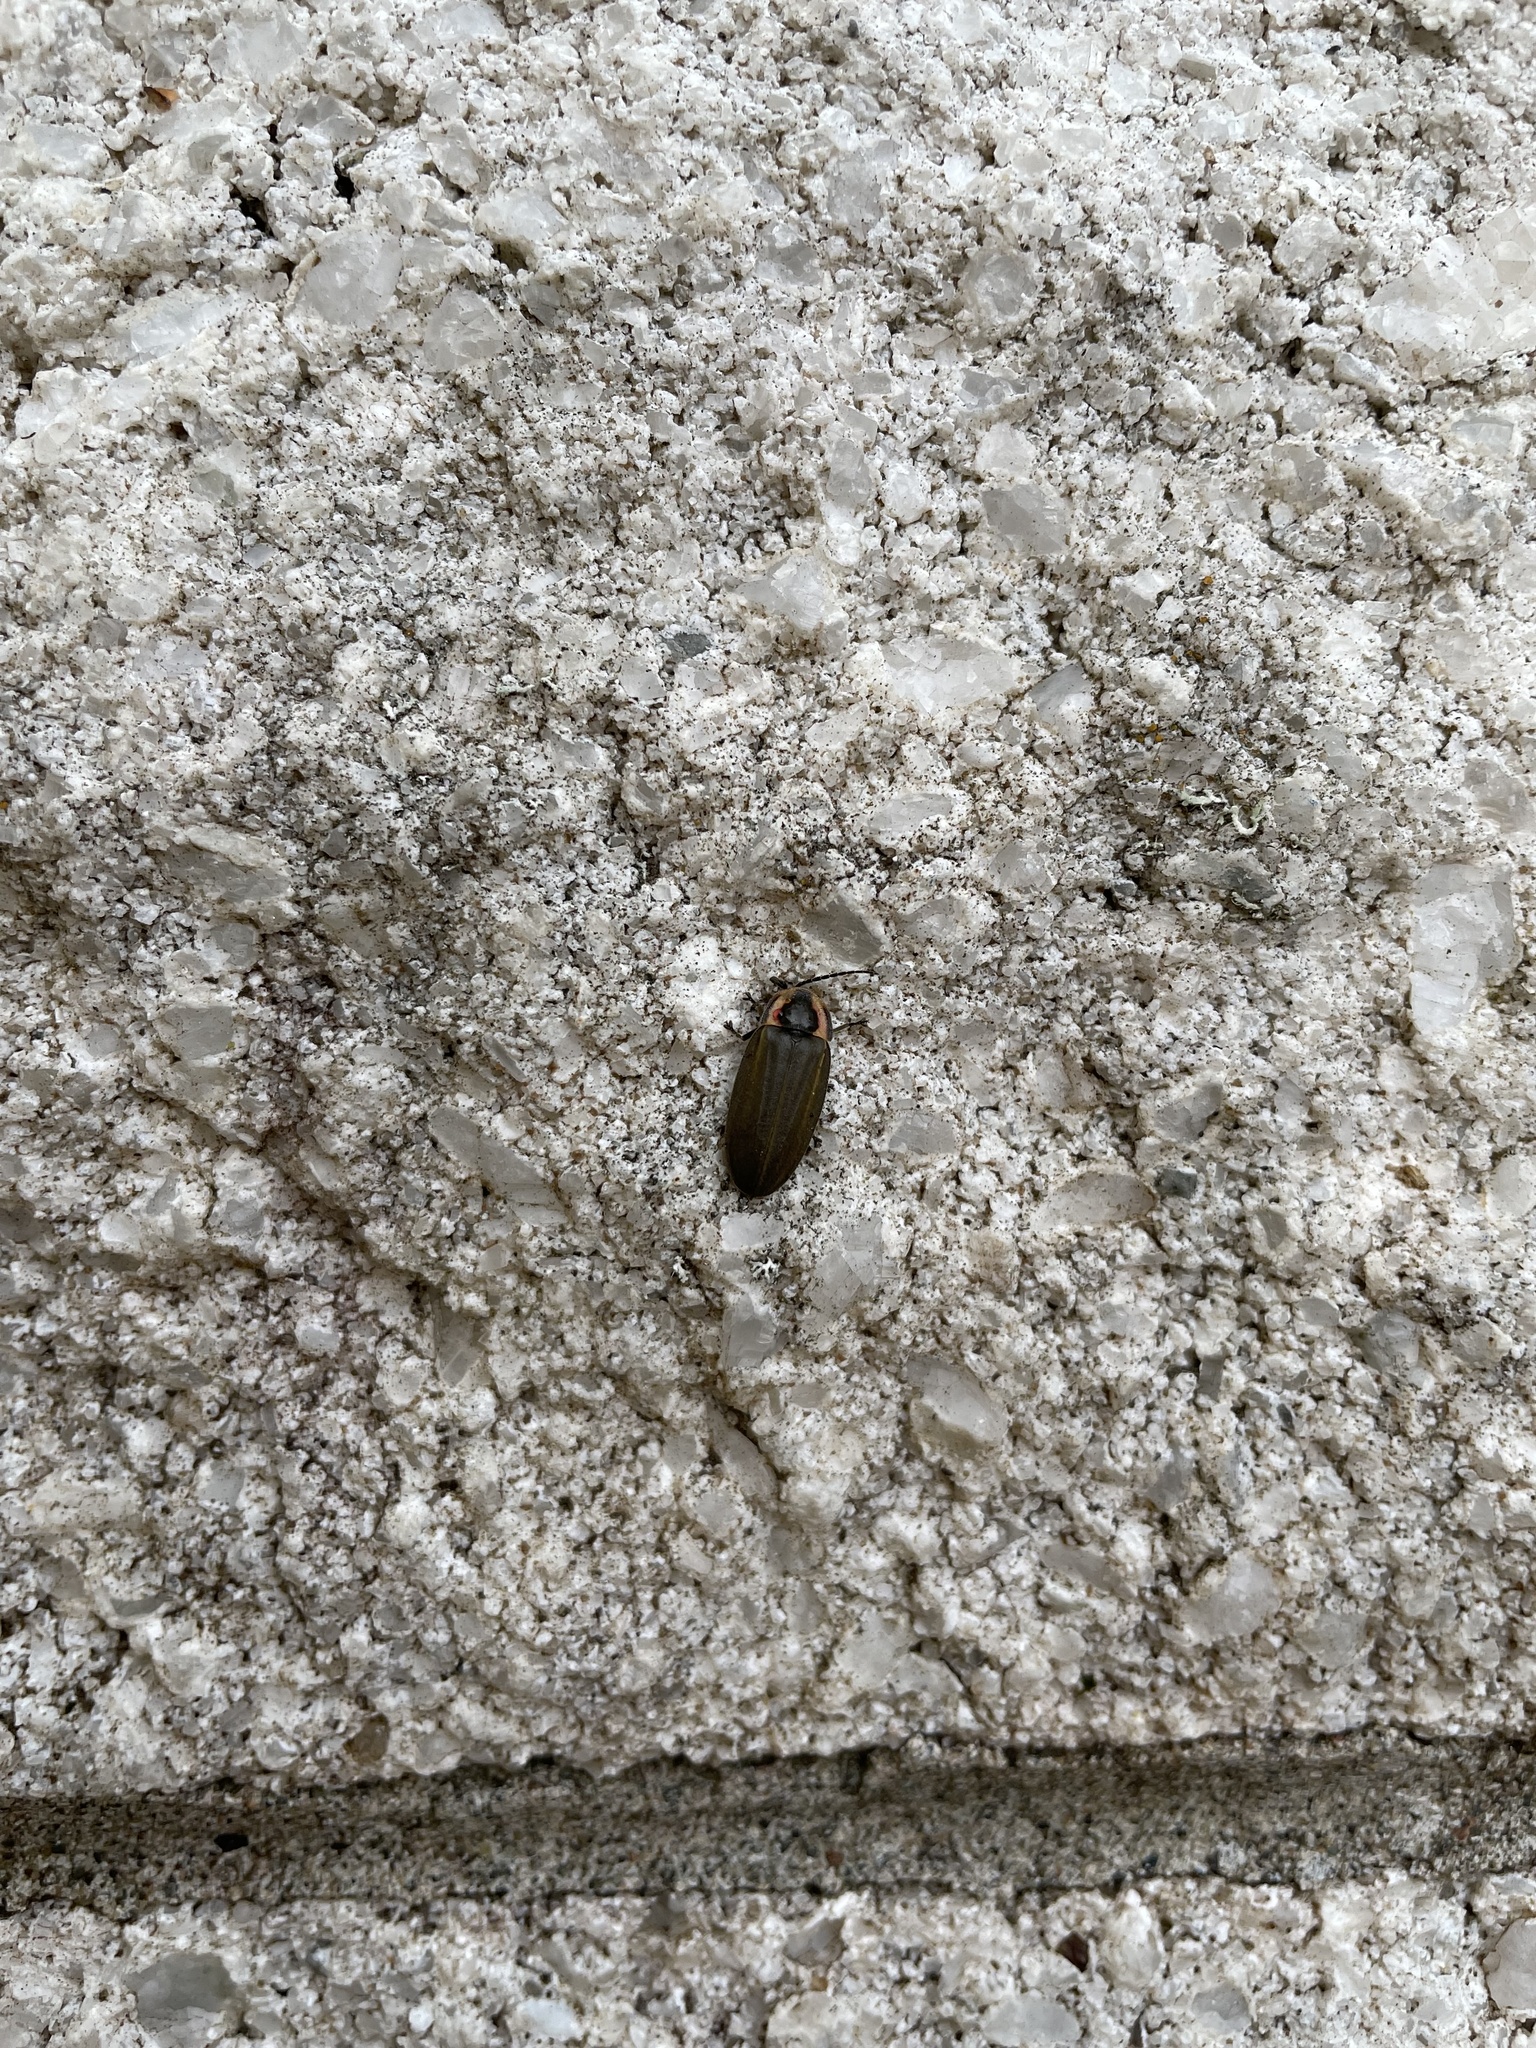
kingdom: Animalia
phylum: Arthropoda
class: Insecta
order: Coleoptera
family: Lampyridae
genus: Photinus
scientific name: Photinus corrusca
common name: Winter firefly
